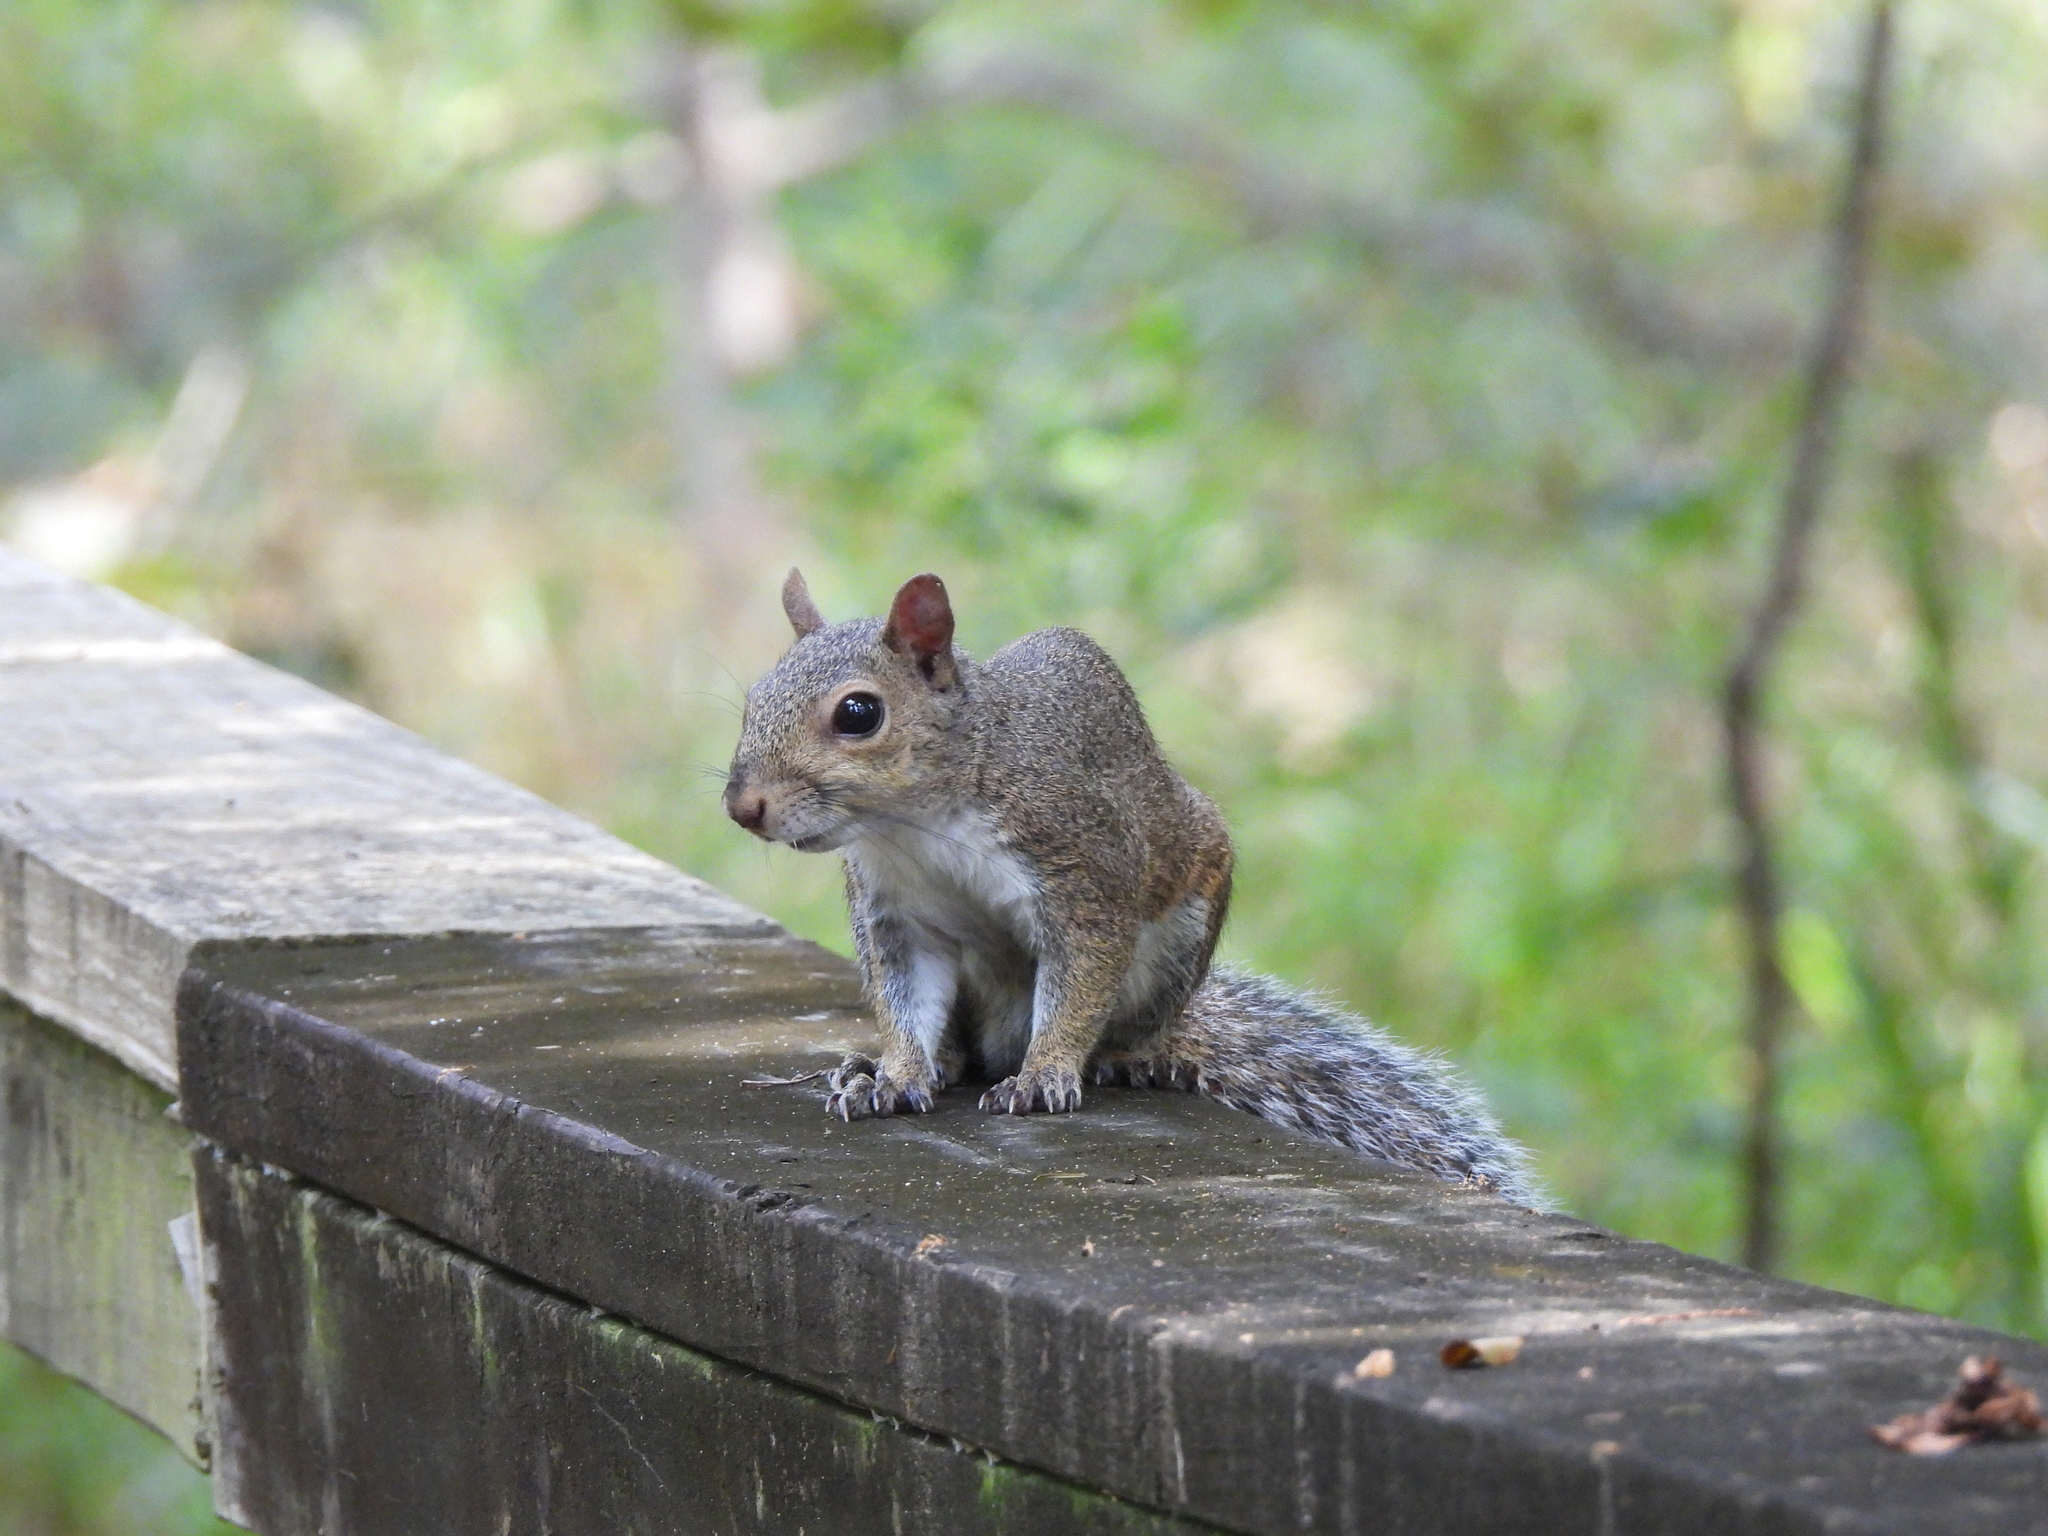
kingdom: Animalia
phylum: Chordata
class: Mammalia
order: Rodentia
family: Sciuridae
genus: Sciurus
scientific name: Sciurus carolinensis
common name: Eastern gray squirrel
